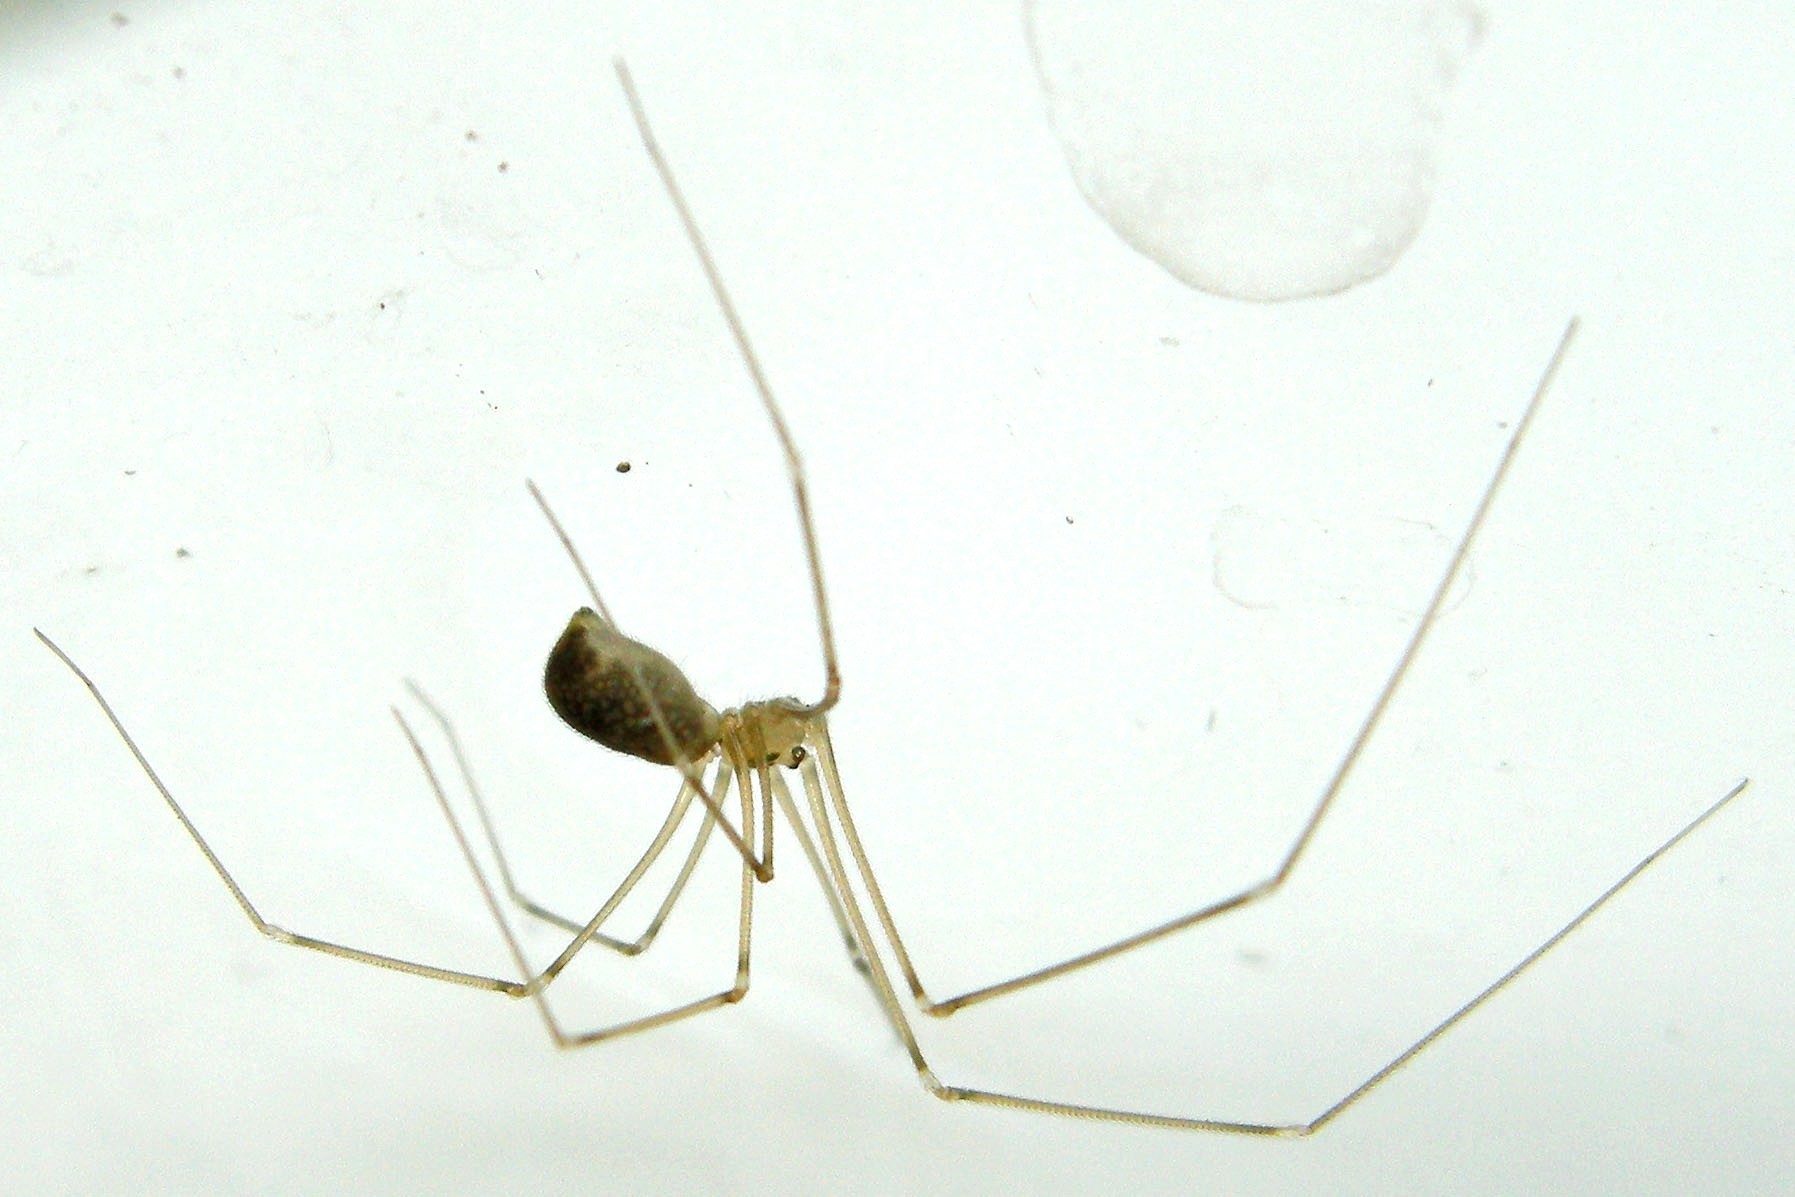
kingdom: Animalia
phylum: Arthropoda
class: Arachnida
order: Araneae
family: Pholcidae
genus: Pholcus
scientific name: Pholcus manueli
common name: Cellar spider
